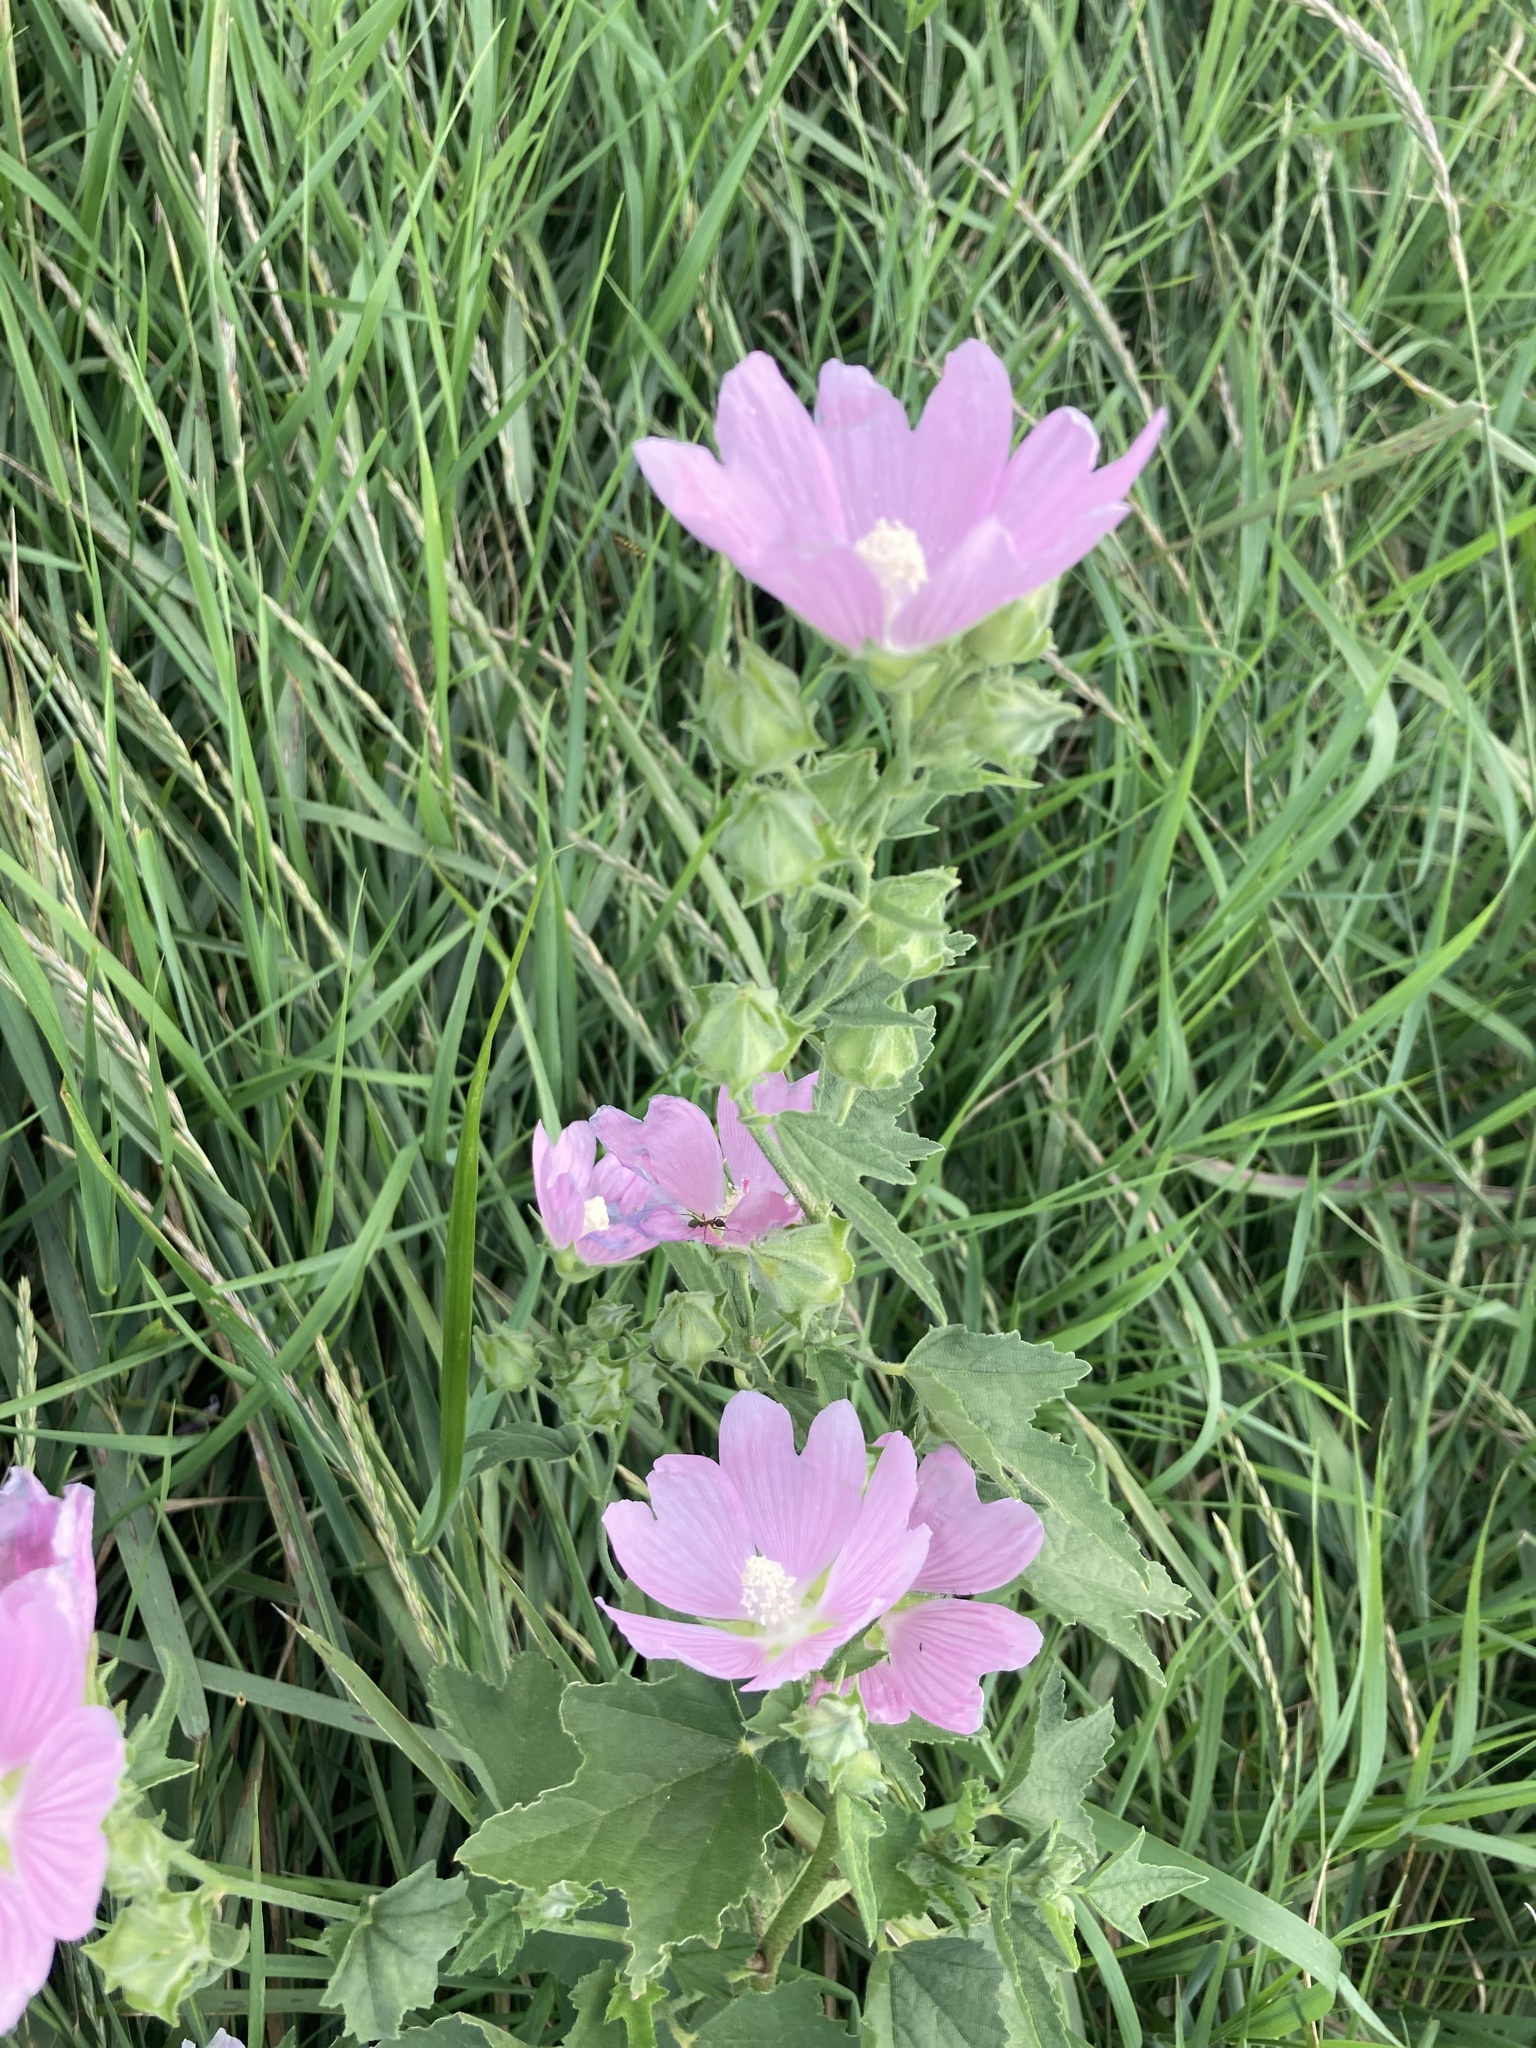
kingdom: Plantae
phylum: Tracheophyta
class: Magnoliopsida
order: Malvales
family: Malvaceae
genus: Malva
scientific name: Malva thuringiaca
